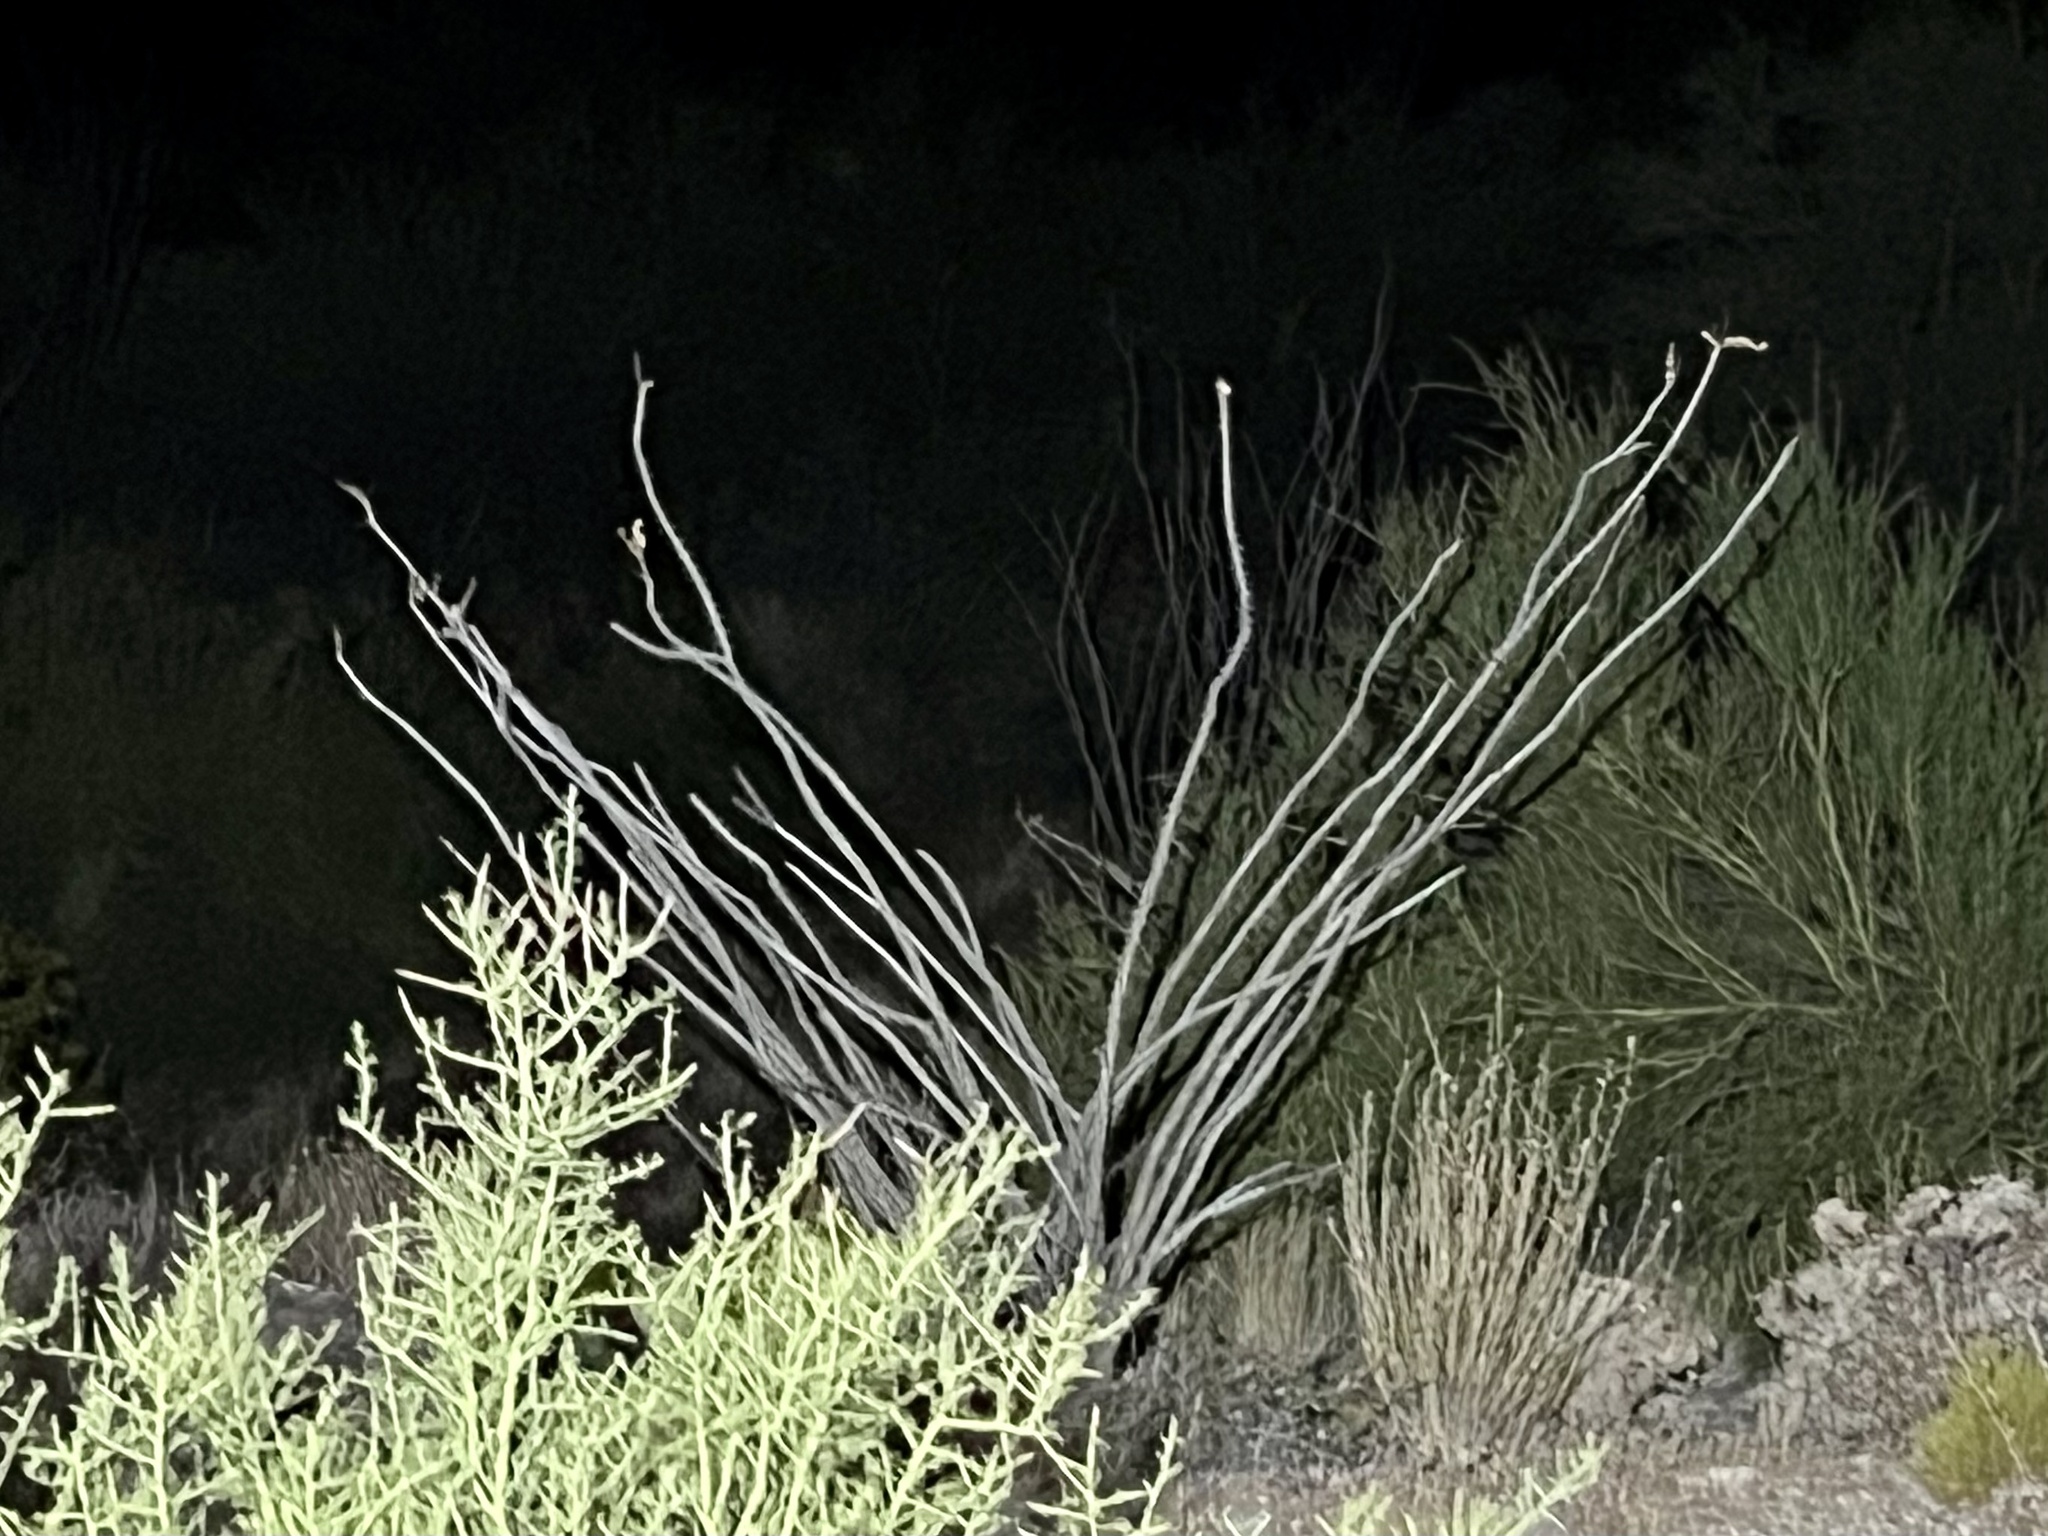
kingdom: Plantae
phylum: Tracheophyta
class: Magnoliopsida
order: Ericales
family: Fouquieriaceae
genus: Fouquieria
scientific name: Fouquieria splendens
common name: Vine-cactus
